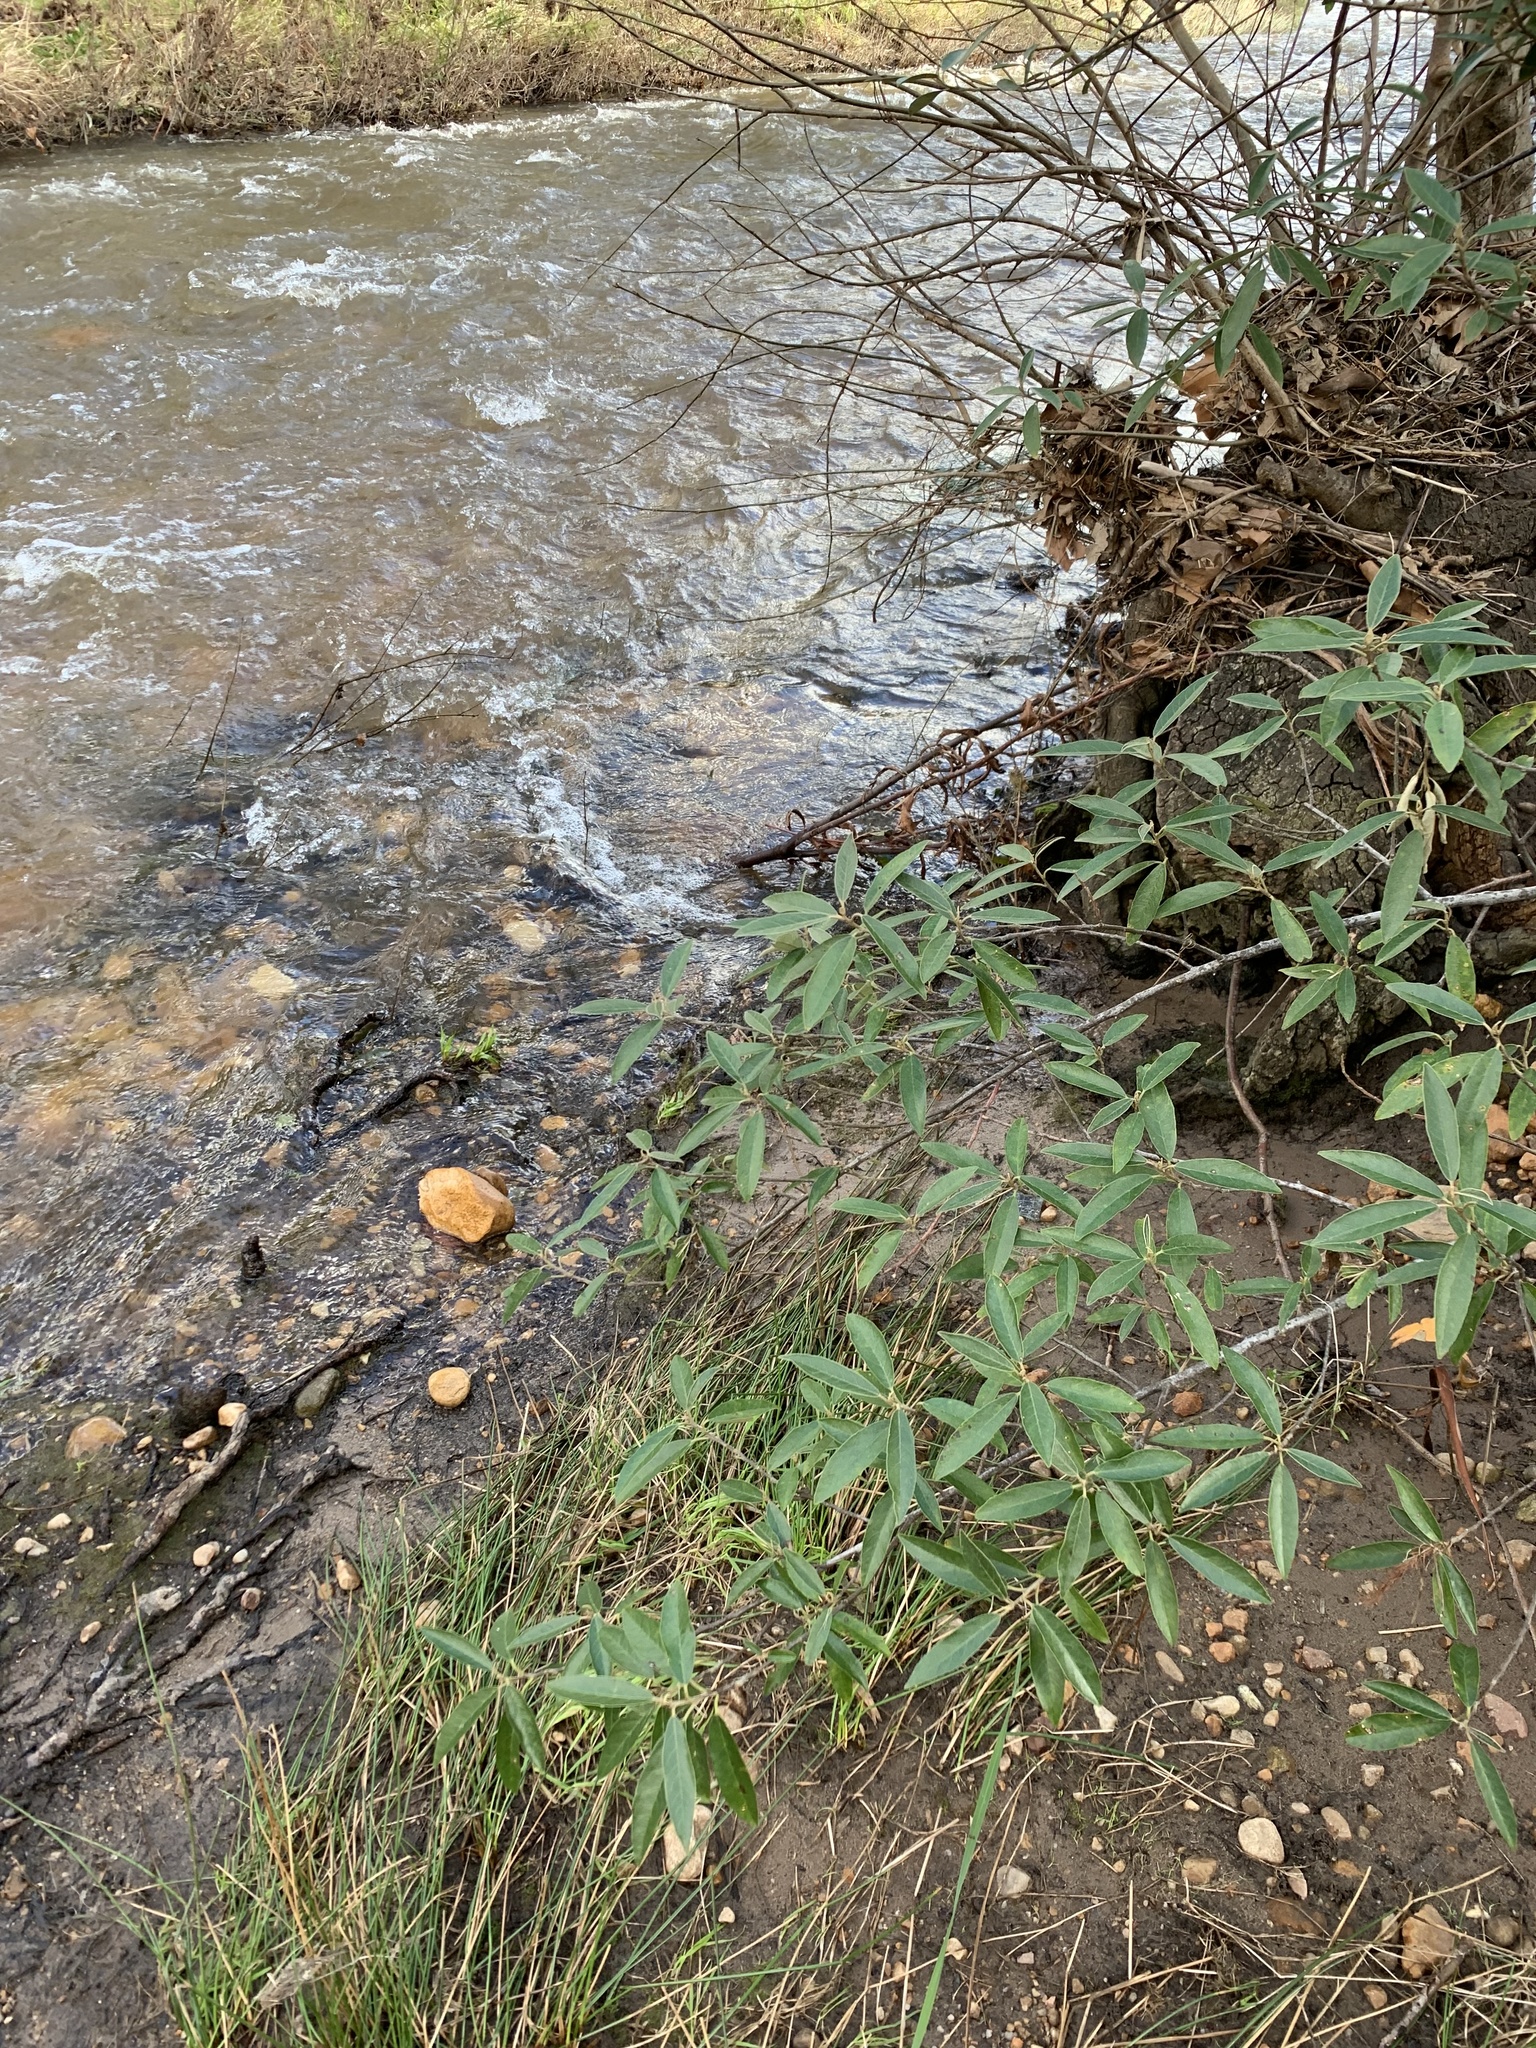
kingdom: Plantae
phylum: Tracheophyta
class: Magnoliopsida
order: Malpighiales
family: Achariaceae
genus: Kiggelaria
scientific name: Kiggelaria africana
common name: Wild peach
